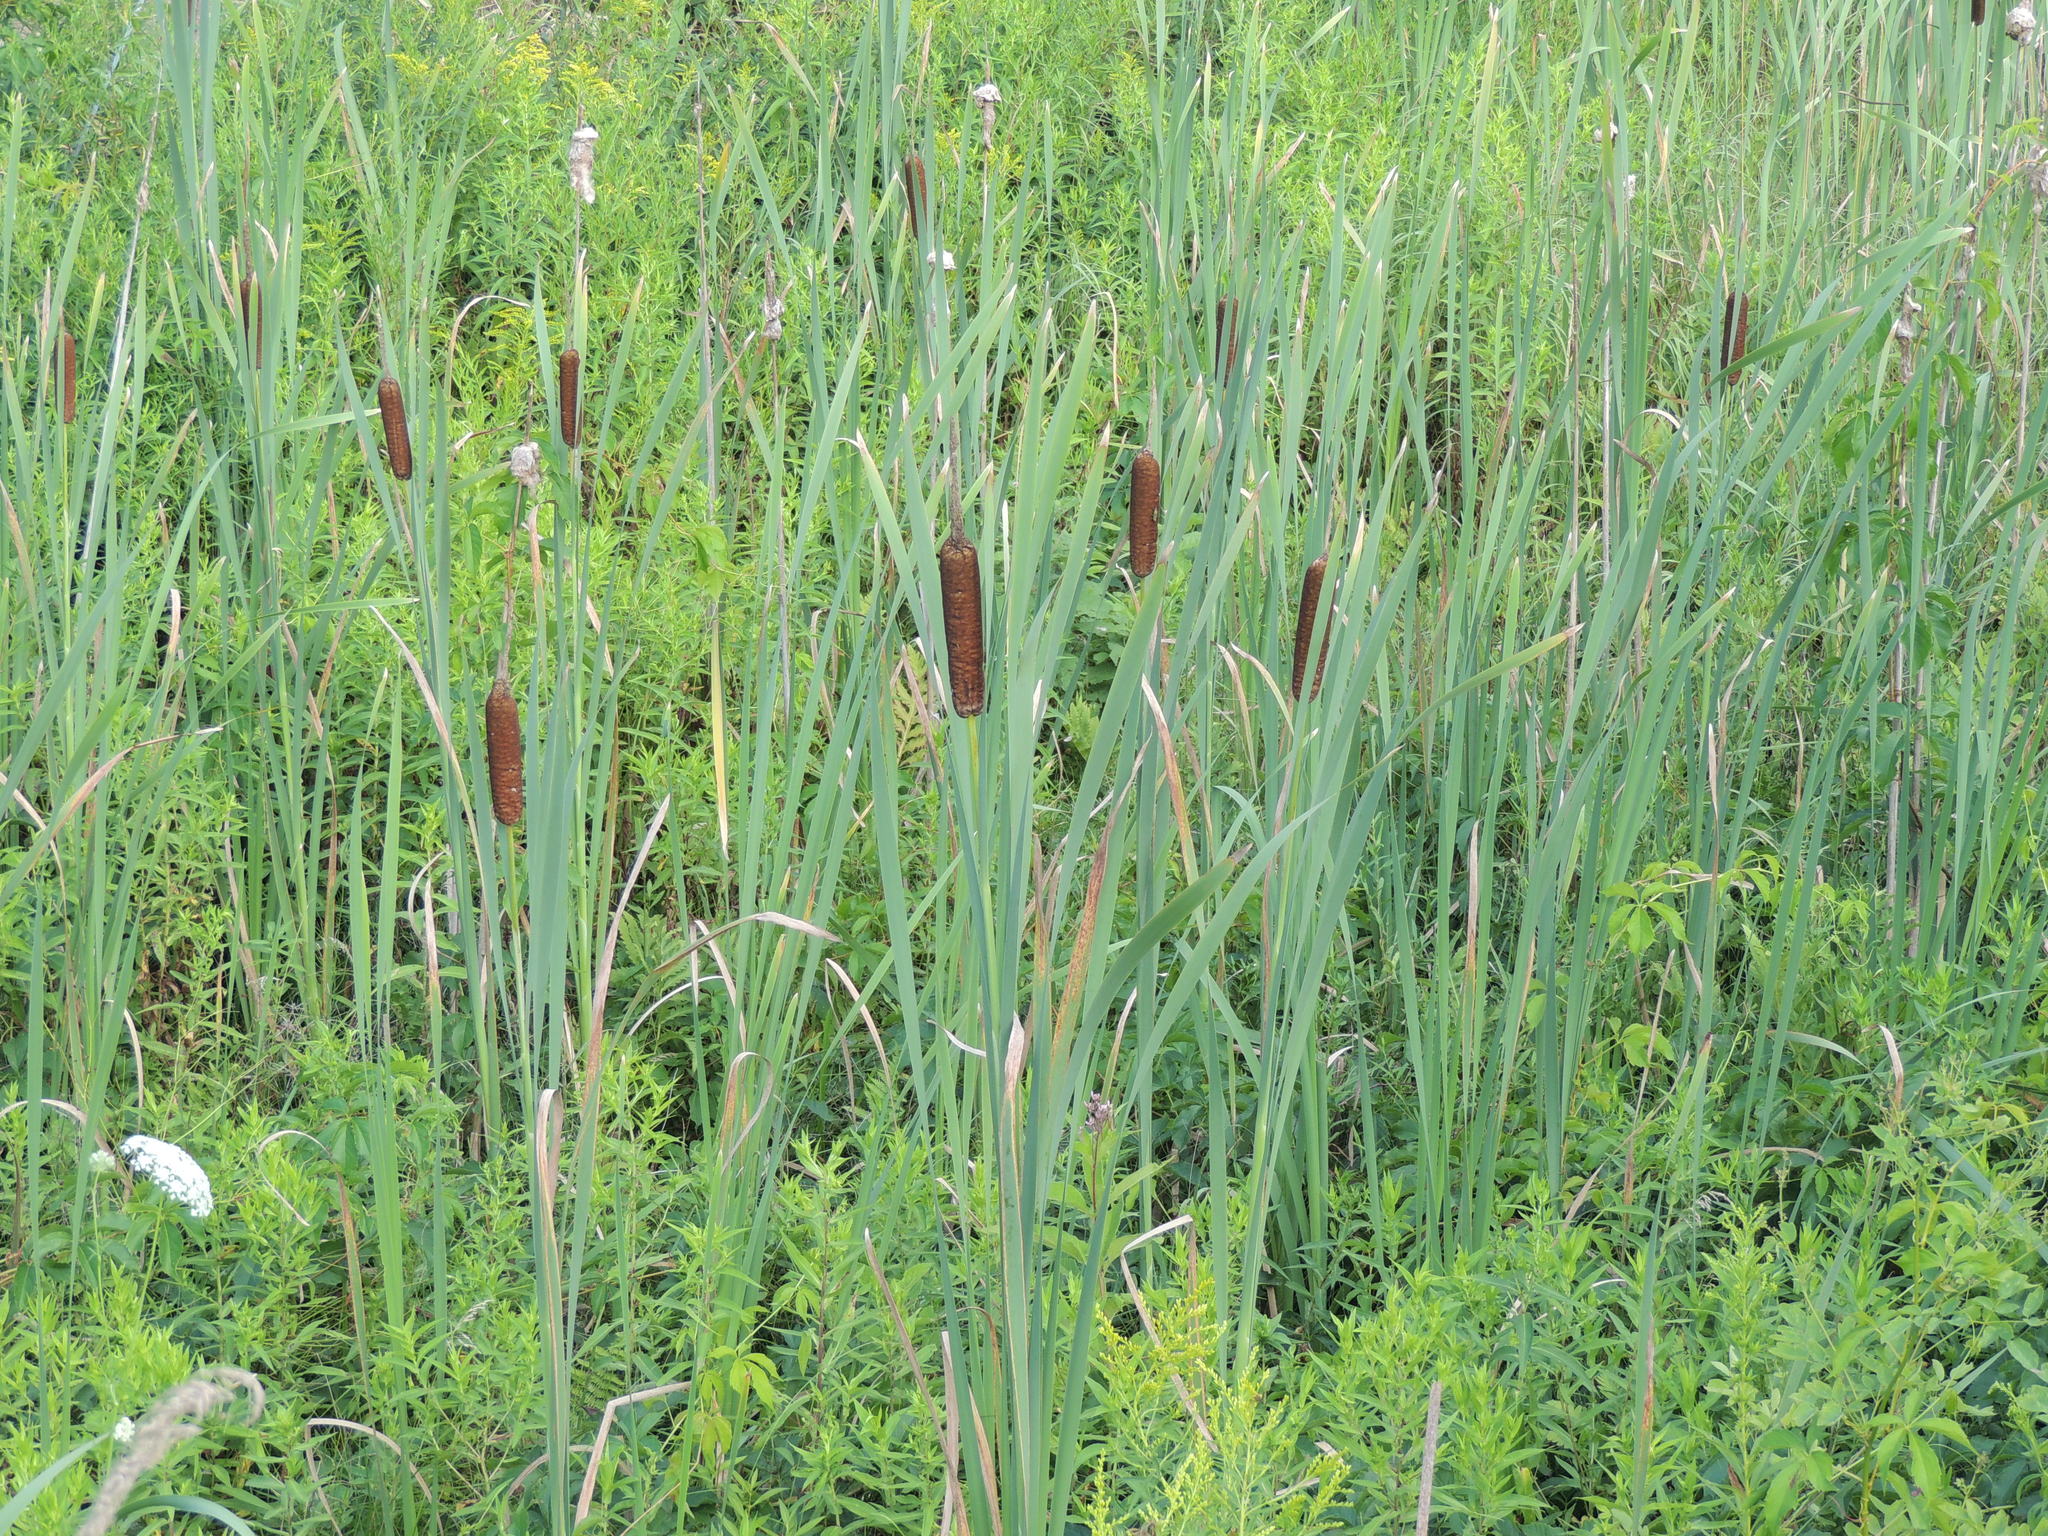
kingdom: Plantae
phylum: Tracheophyta
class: Liliopsida
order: Poales
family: Typhaceae
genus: Typha
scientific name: Typha latifolia
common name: Broadleaf cattail
